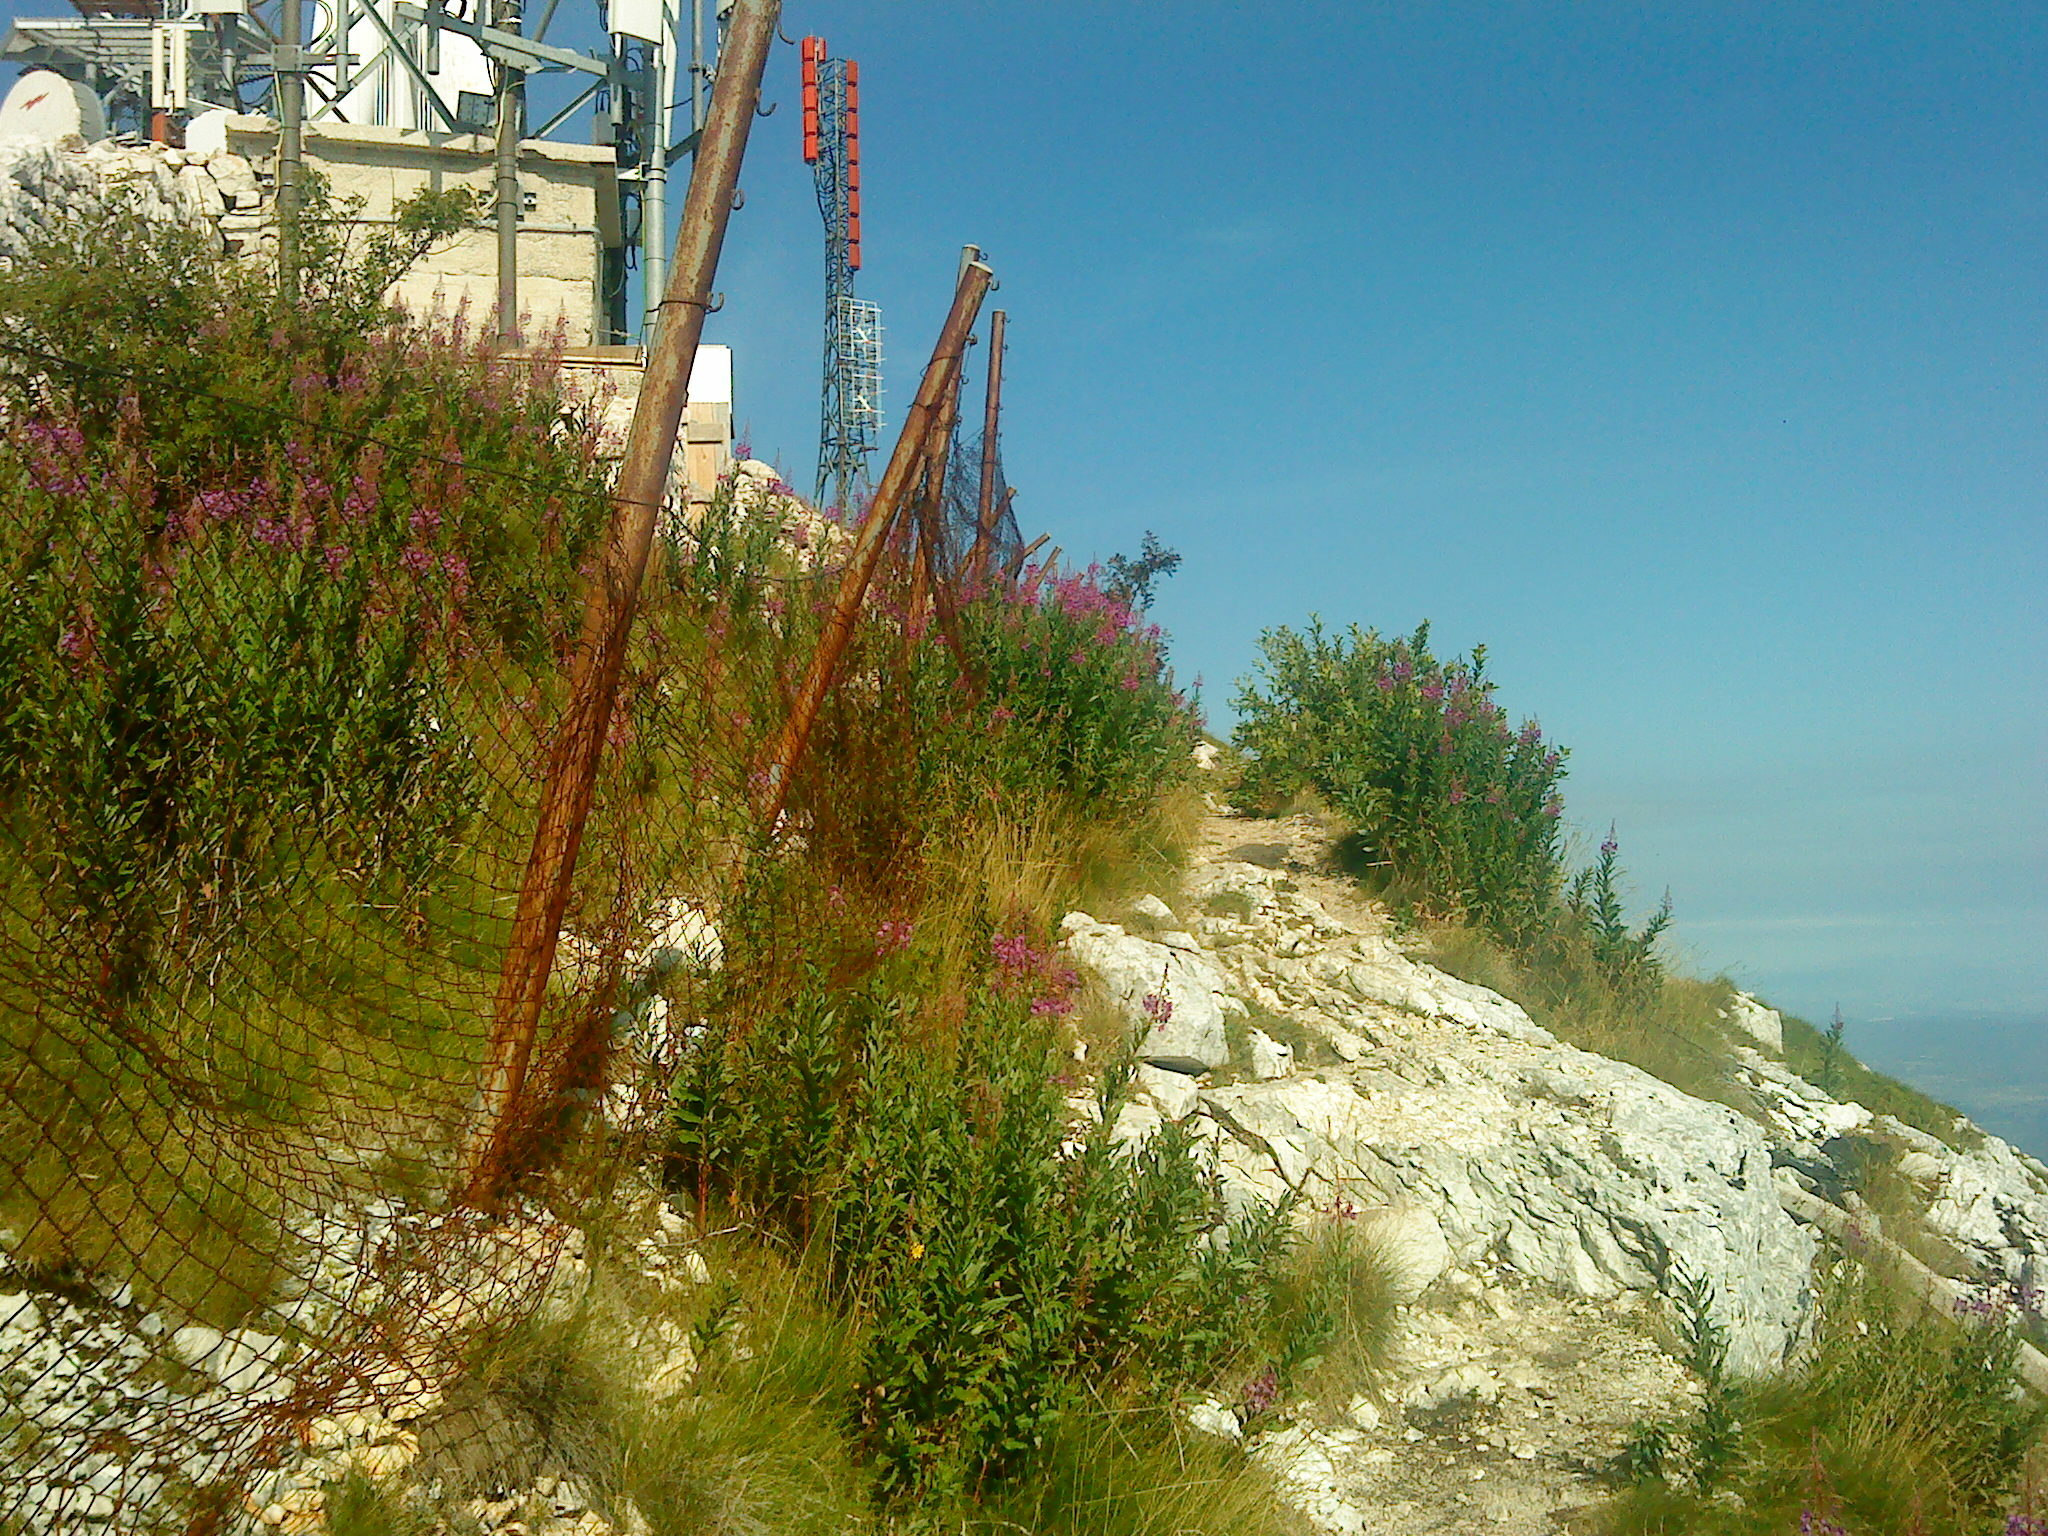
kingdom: Plantae
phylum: Tracheophyta
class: Magnoliopsida
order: Myrtales
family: Onagraceae
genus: Chamaenerion
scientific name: Chamaenerion angustifolium
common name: Fireweed
